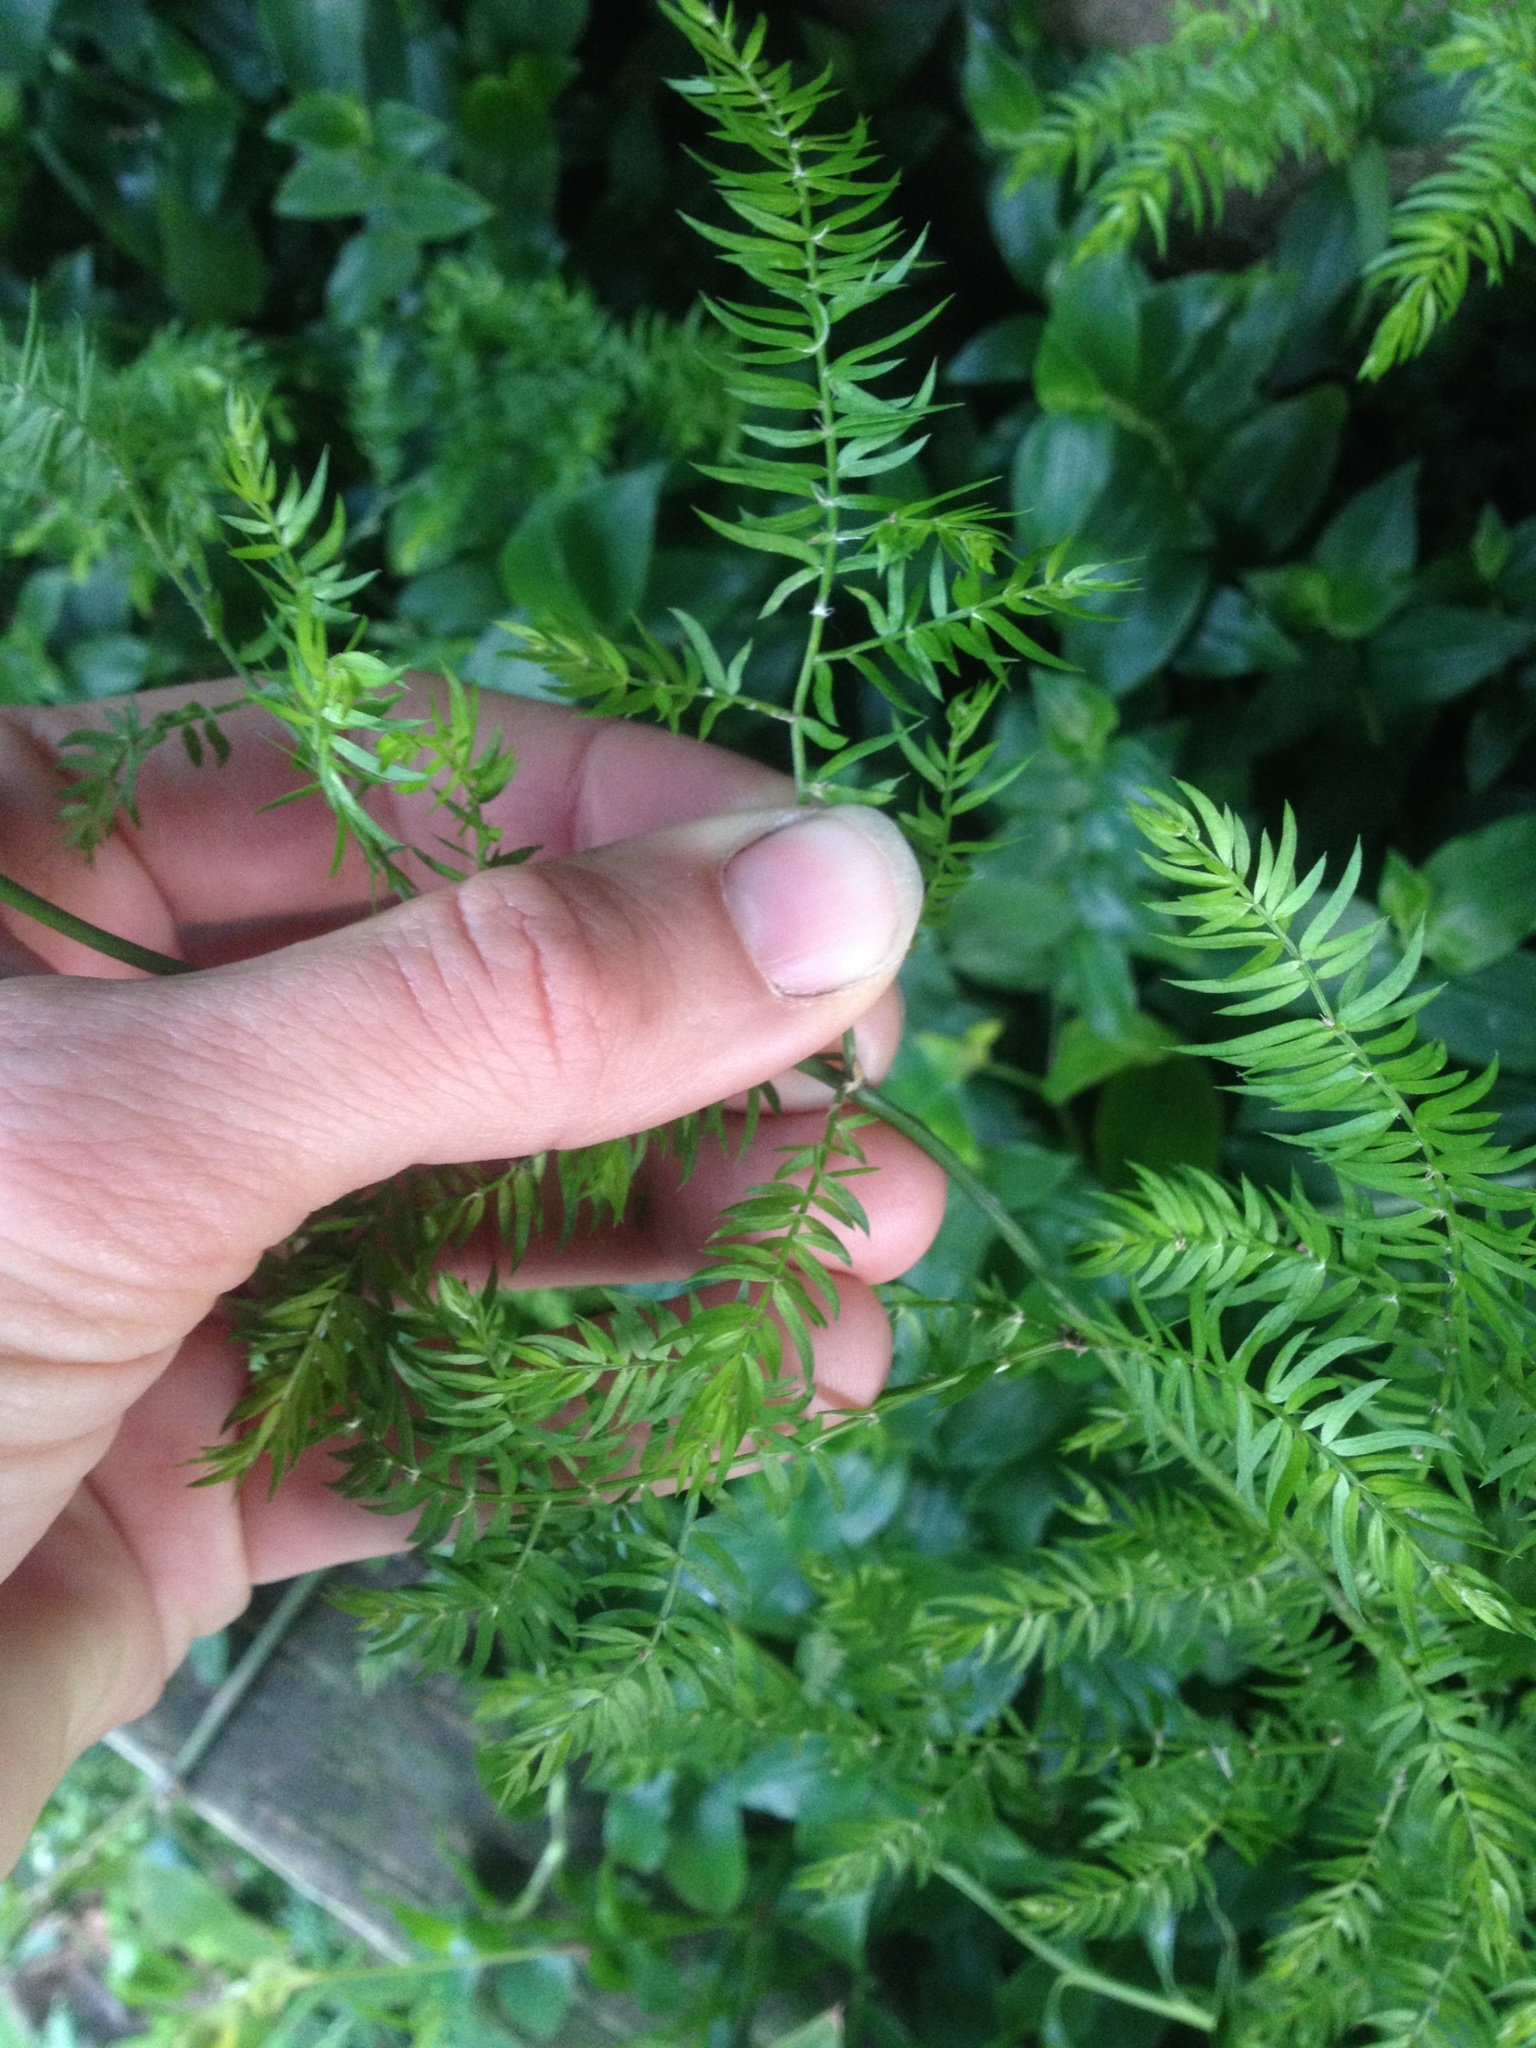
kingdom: Plantae
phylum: Tracheophyta
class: Liliopsida
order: Asparagales
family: Asparagaceae
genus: Asparagus
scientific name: Asparagus scandens
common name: Asparagus-fern
